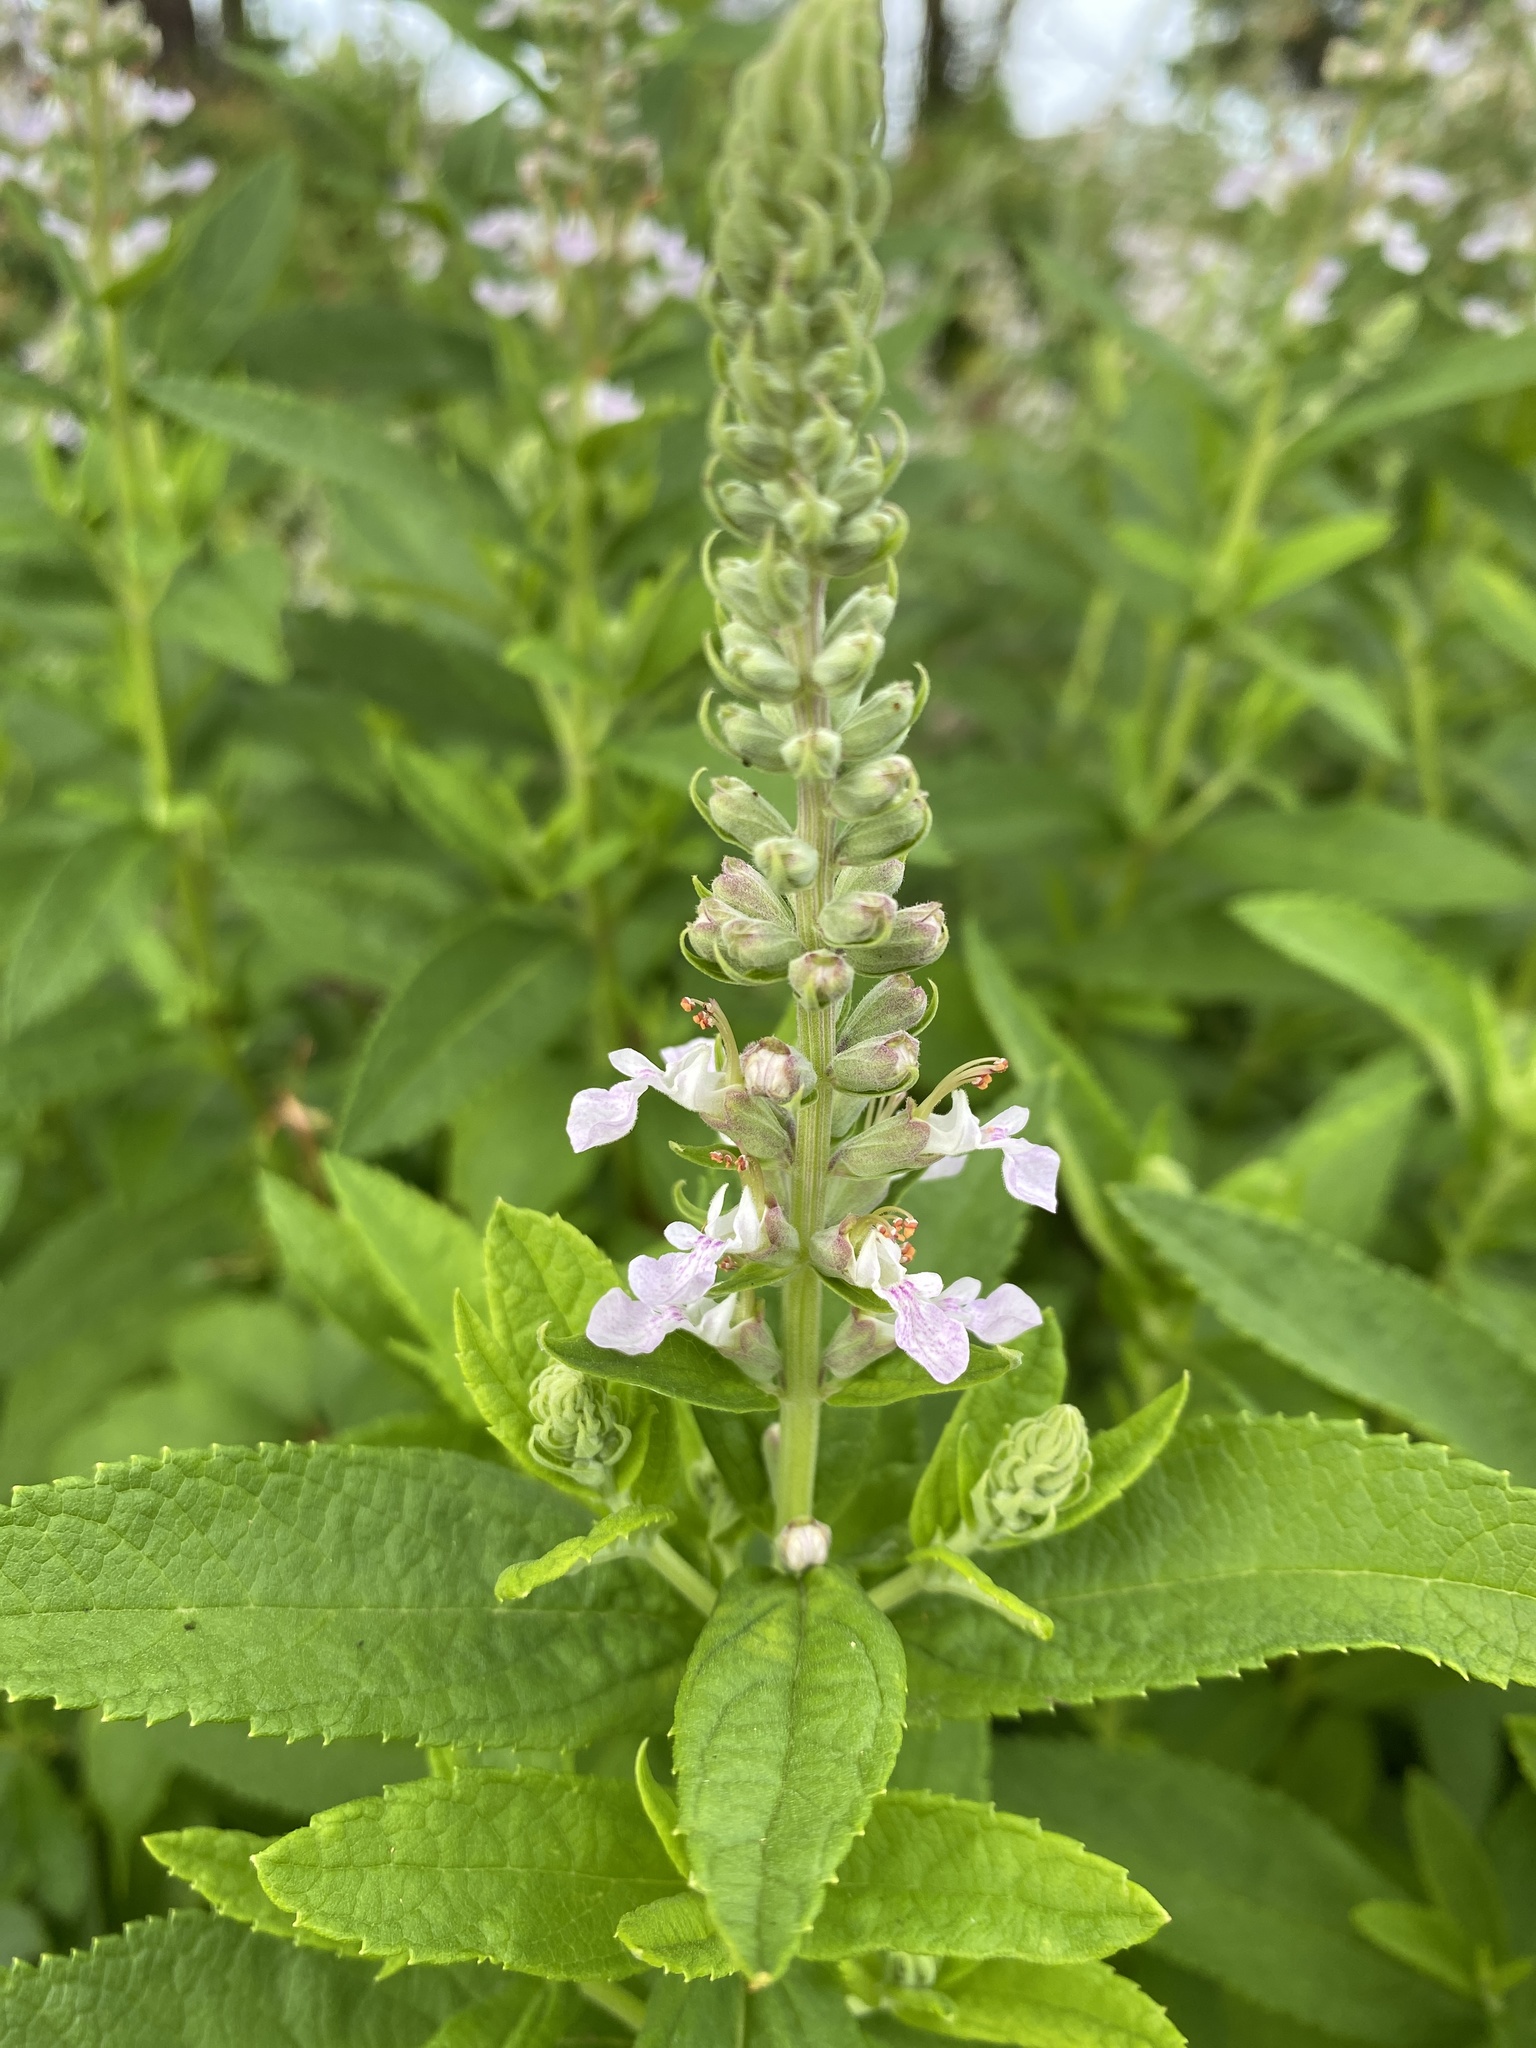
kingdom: Plantae
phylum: Tracheophyta
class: Magnoliopsida
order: Lamiales
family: Lamiaceae
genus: Teucrium
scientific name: Teucrium canadense
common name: American germander
